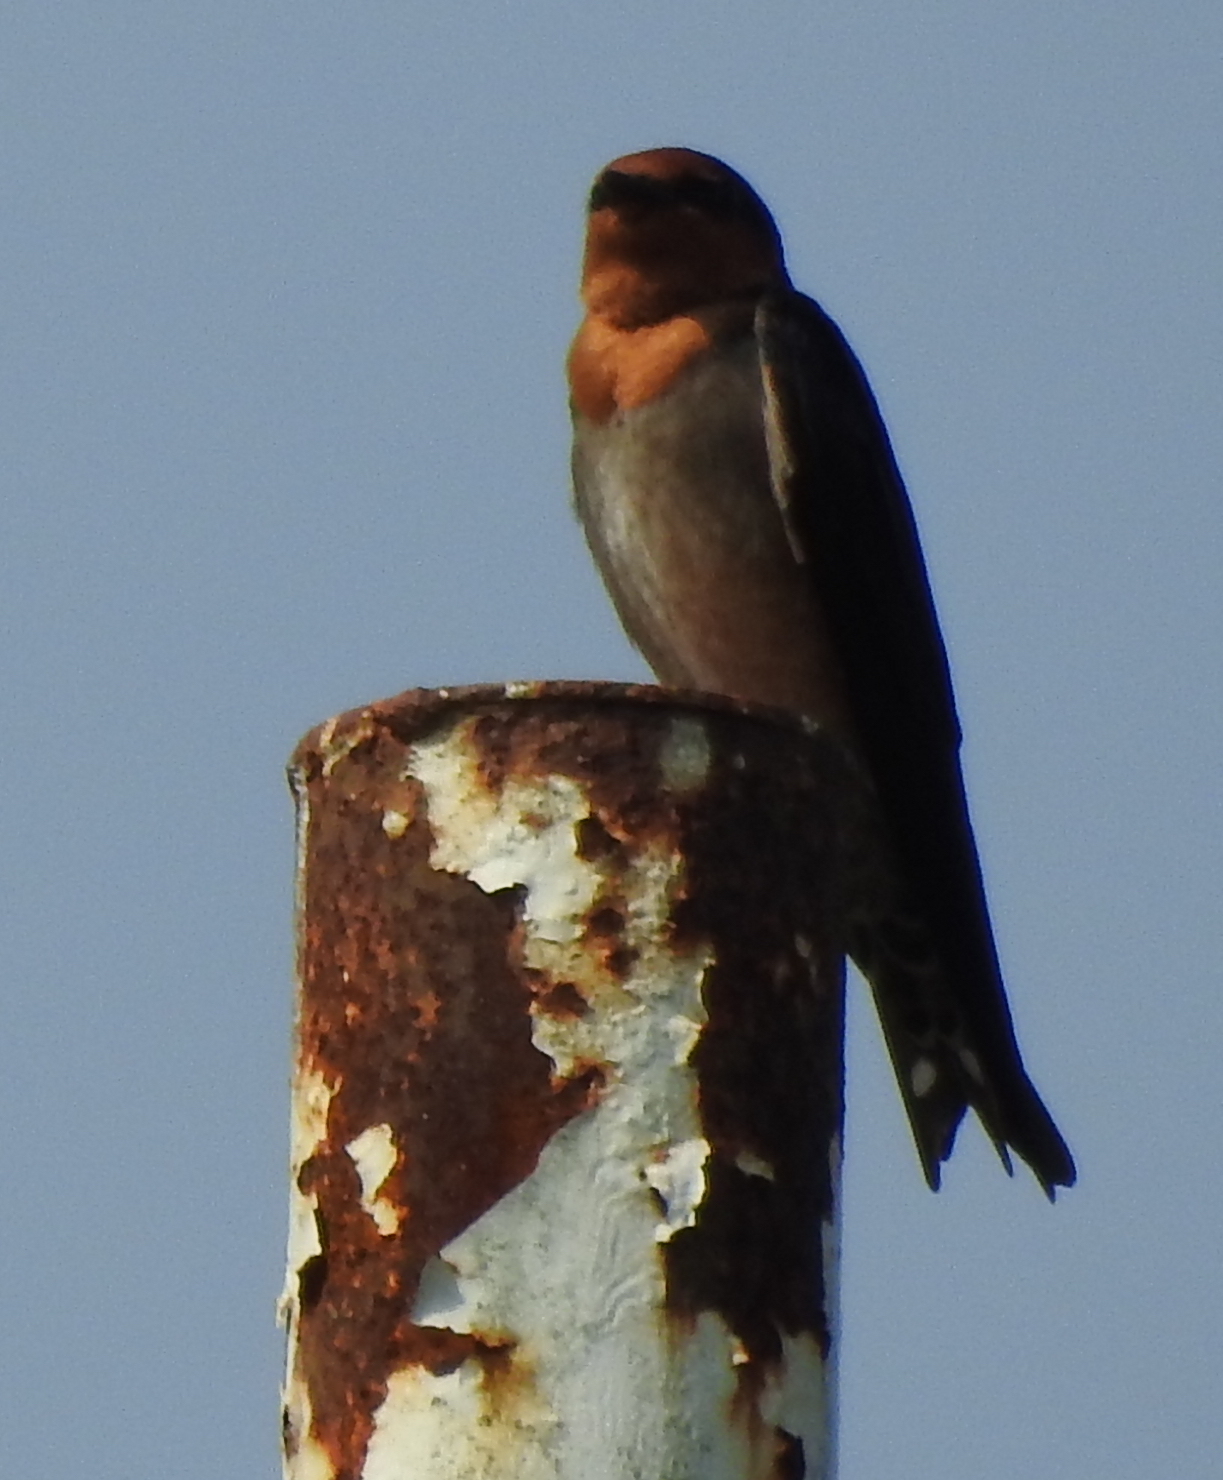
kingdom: Animalia
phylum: Chordata
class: Aves
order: Passeriformes
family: Hirundinidae
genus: Hirundo
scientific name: Hirundo tahitica
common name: Pacific swallow
